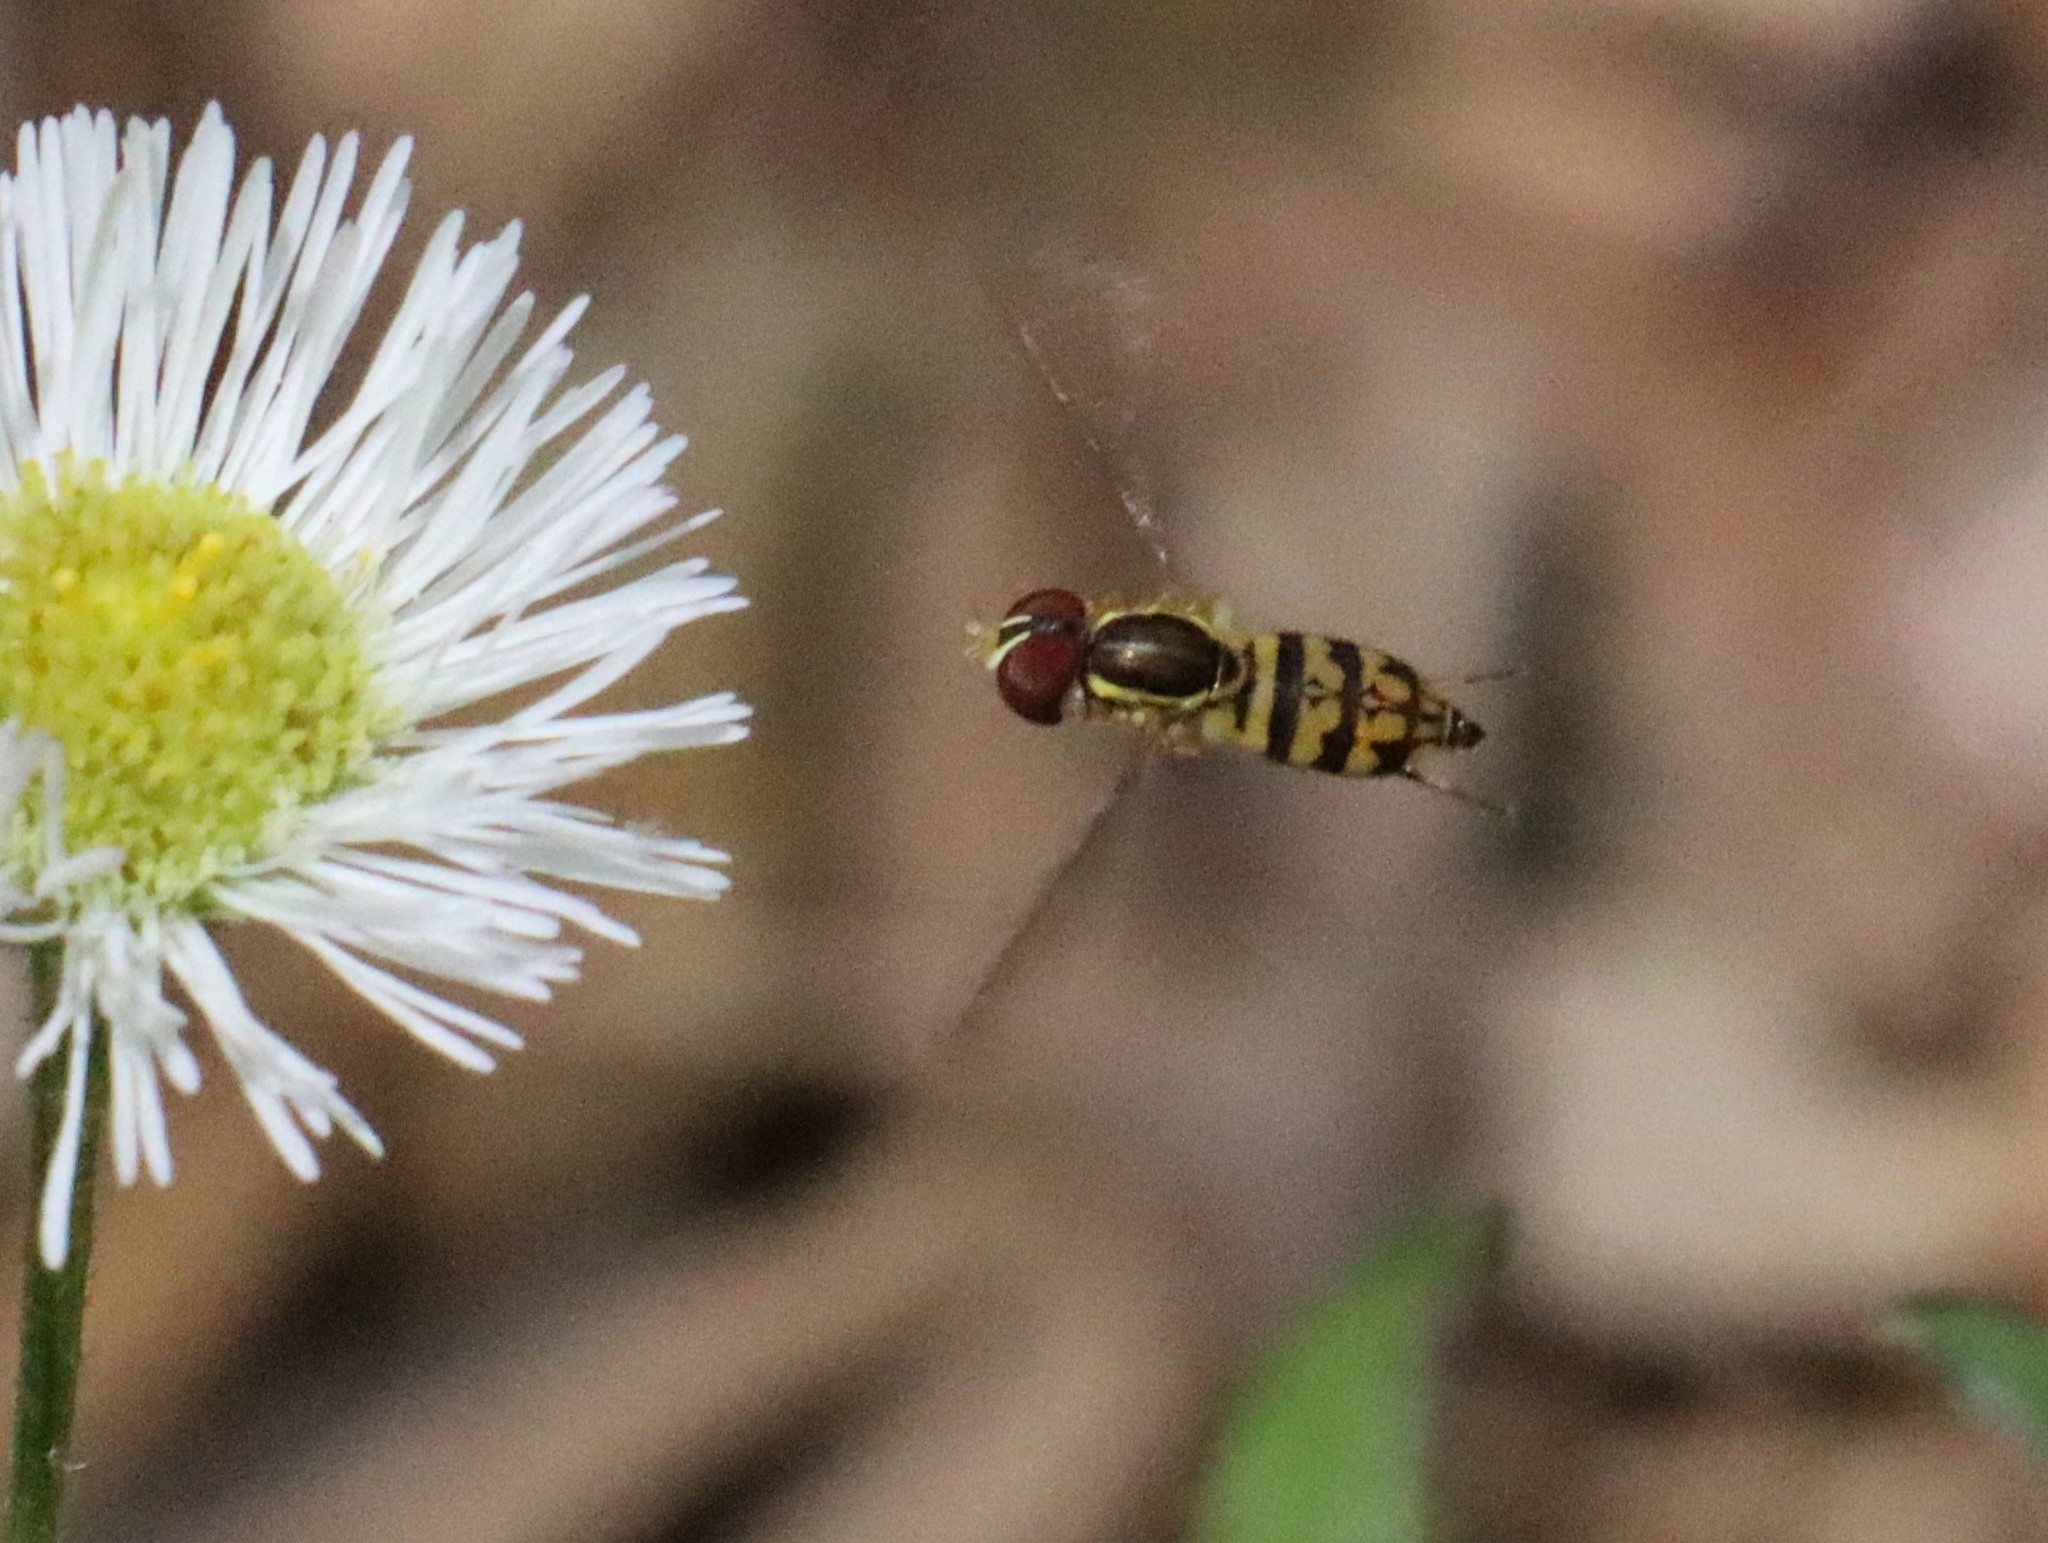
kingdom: Animalia
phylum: Arthropoda
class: Insecta
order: Diptera
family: Syrphidae
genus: Toxomerus
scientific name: Toxomerus geminatus
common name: Eastern calligrapher
